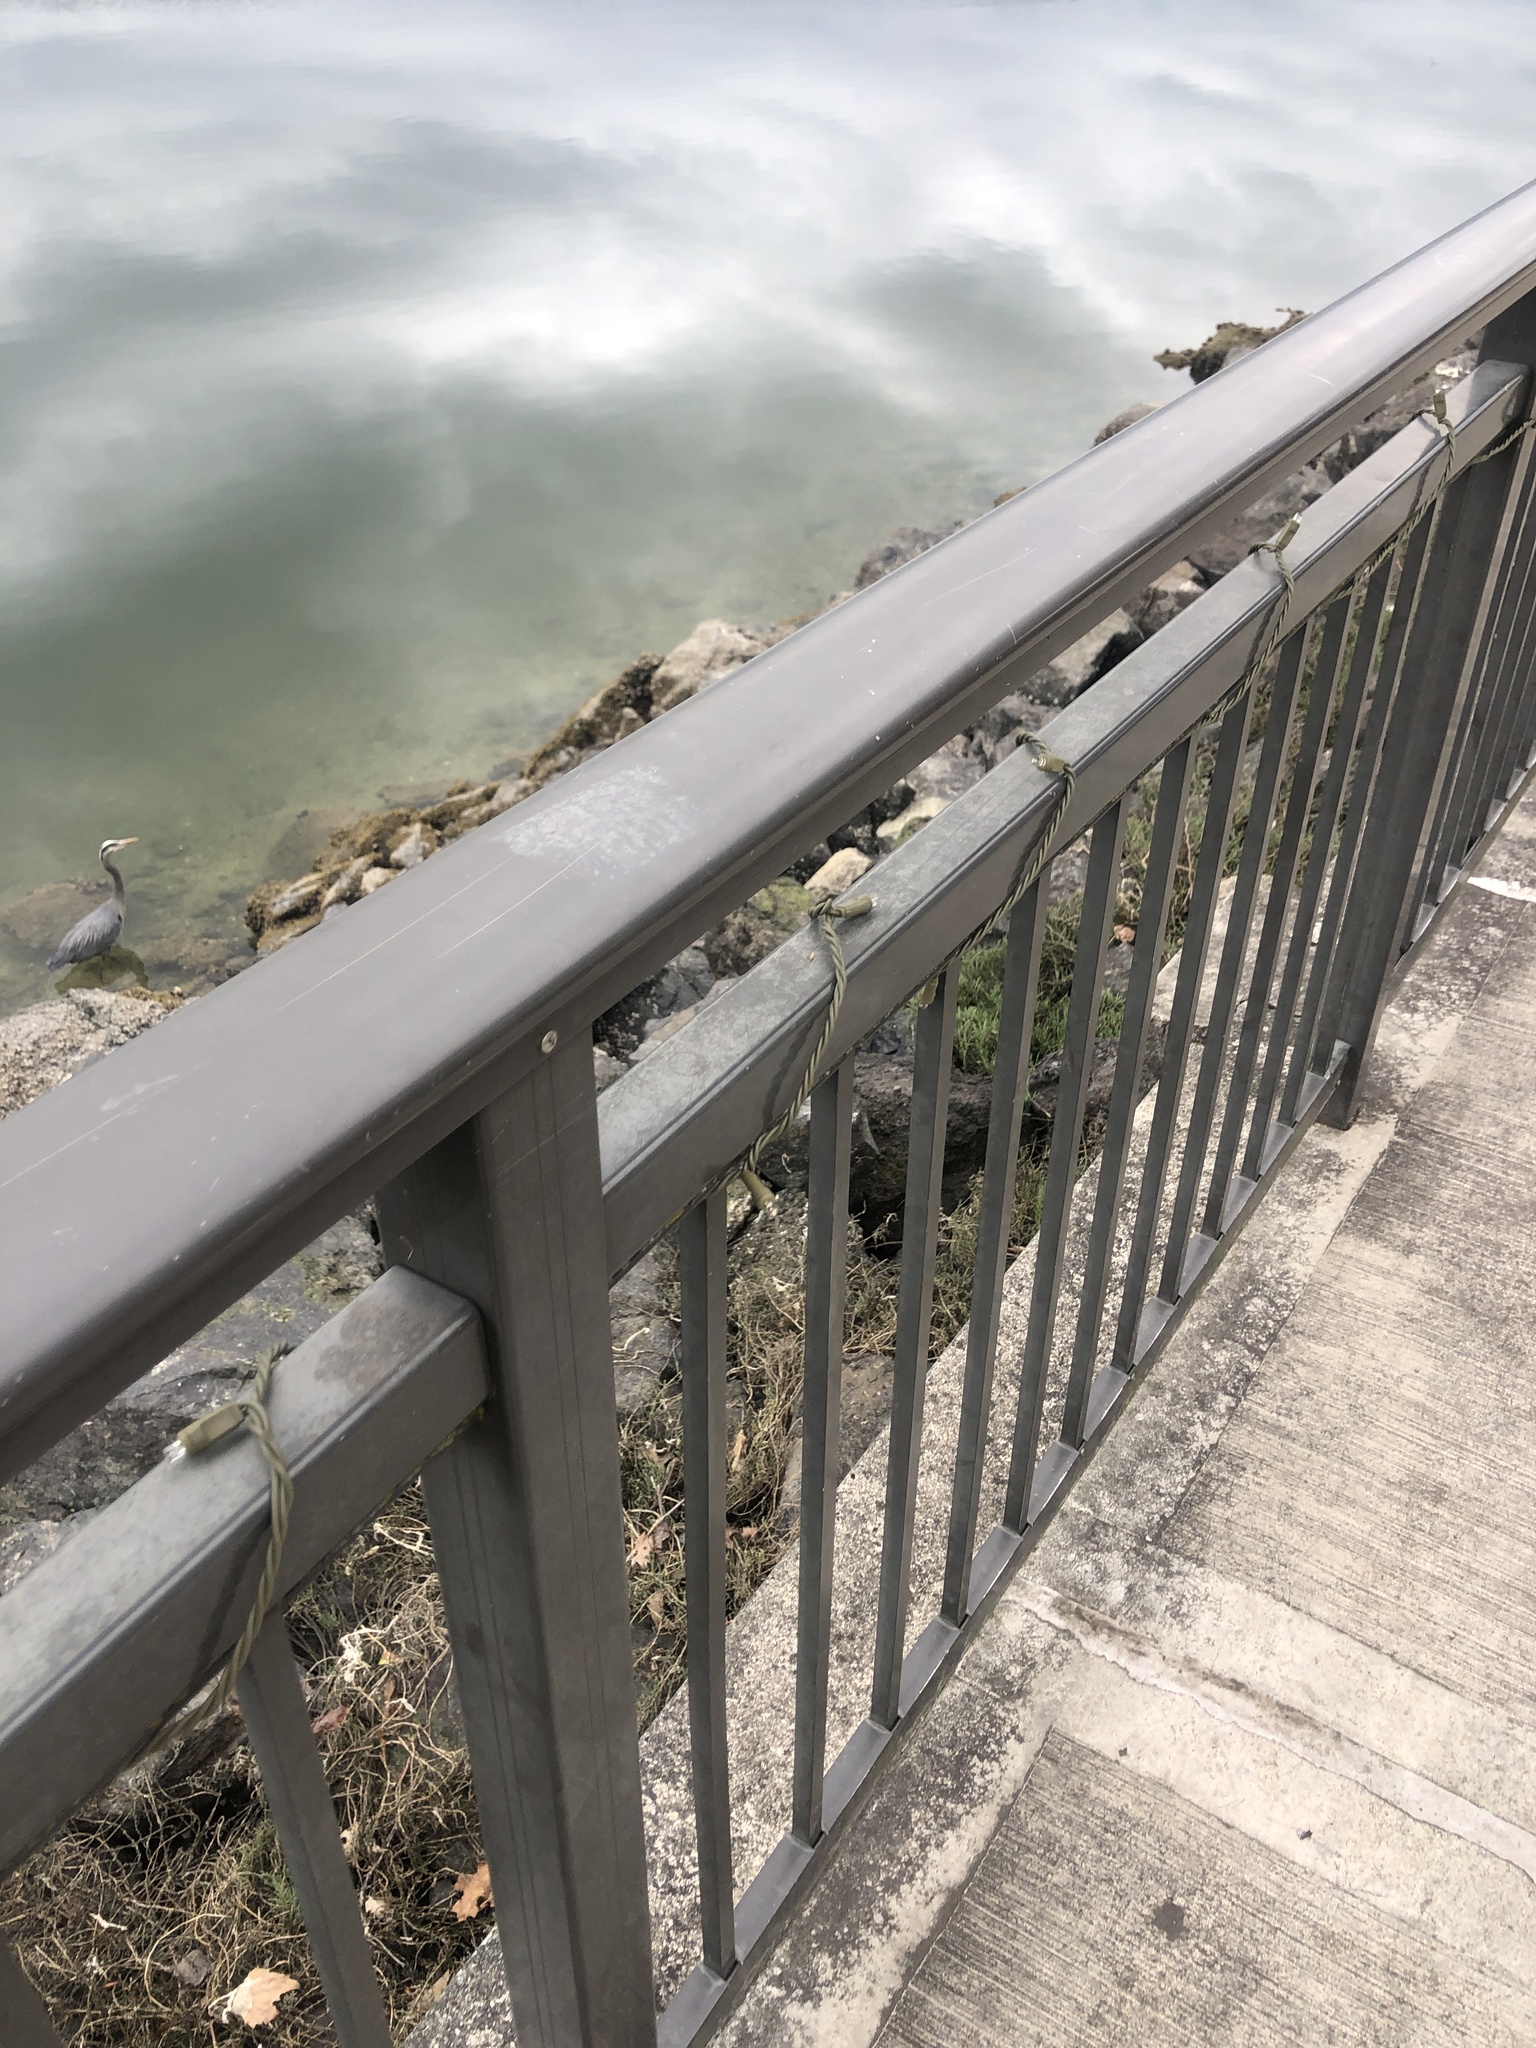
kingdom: Animalia
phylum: Chordata
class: Aves
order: Pelecaniformes
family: Ardeidae
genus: Ardea
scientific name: Ardea herodias
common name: Great blue heron
